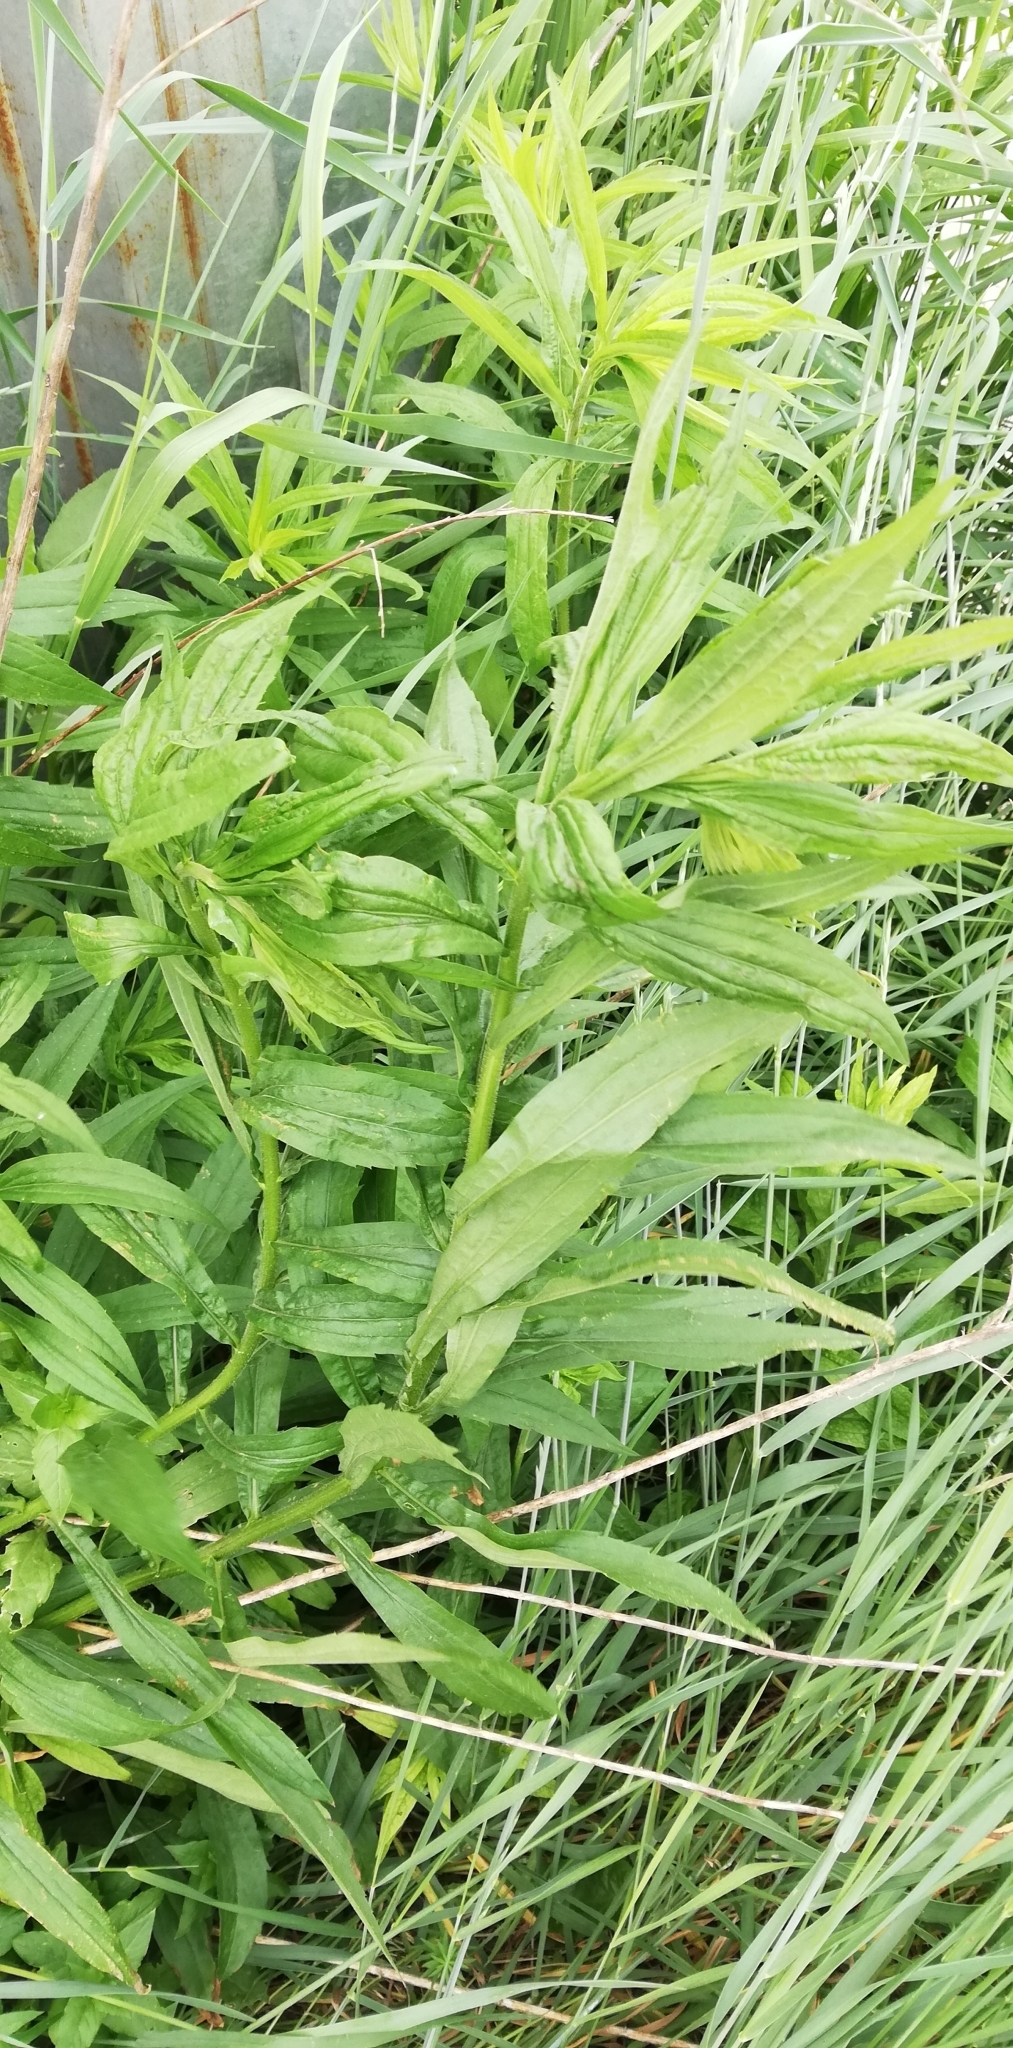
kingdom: Plantae
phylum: Tracheophyta
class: Magnoliopsida
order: Asterales
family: Asteraceae
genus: Solidago
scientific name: Solidago canadensis
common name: Canada goldenrod
